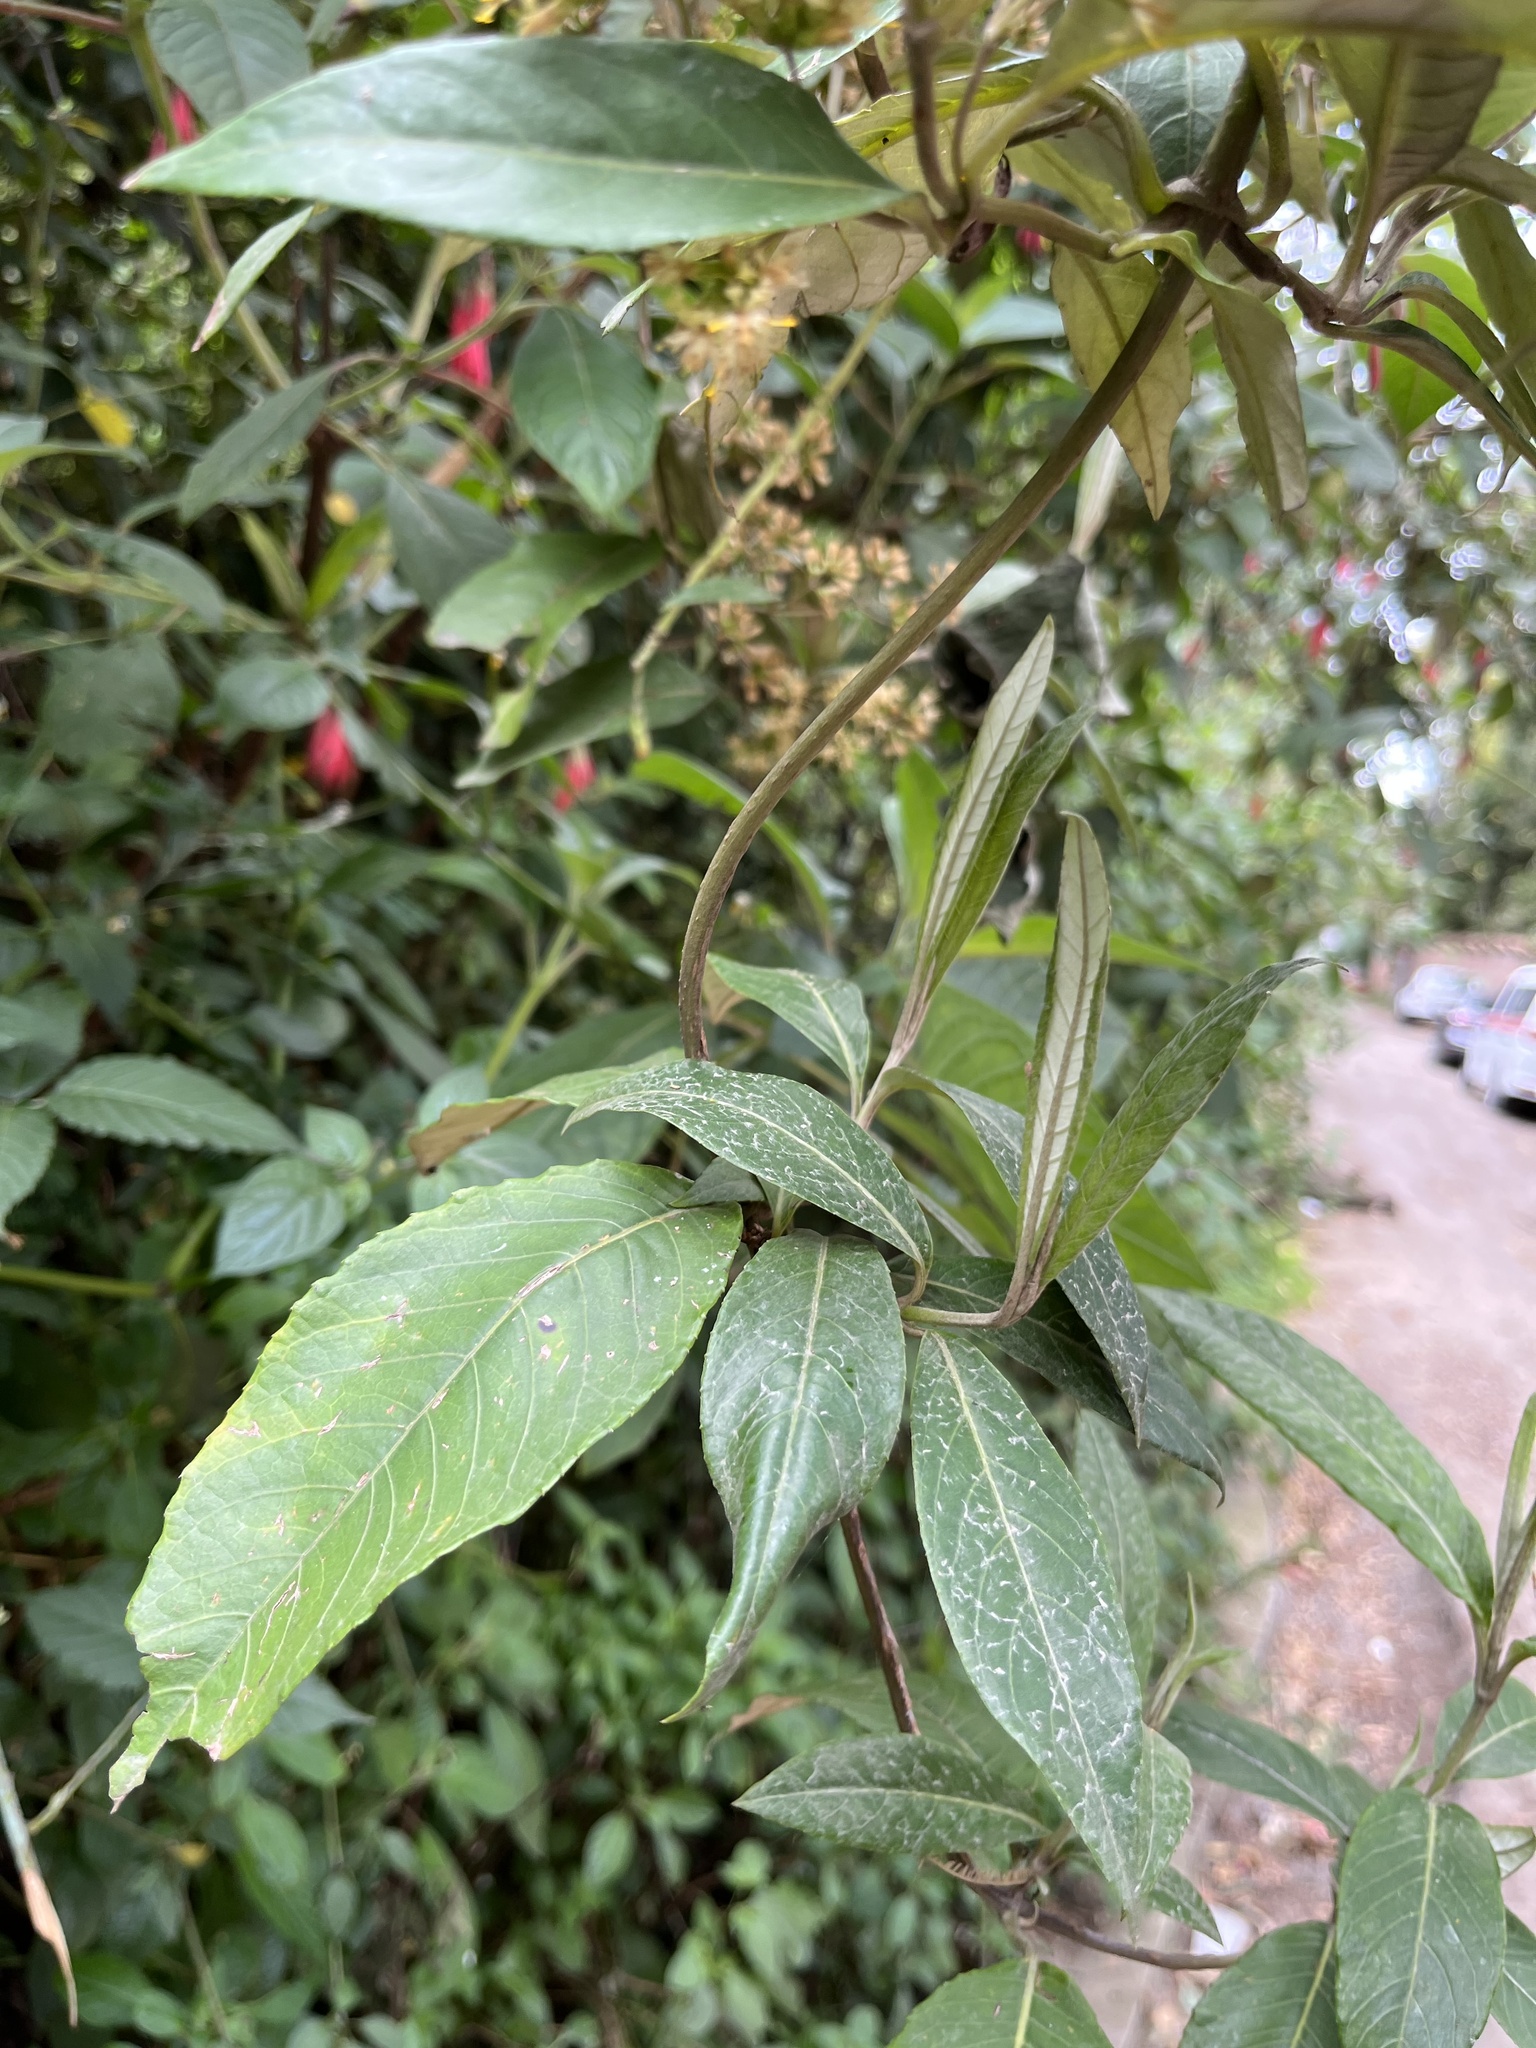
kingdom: Plantae
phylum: Tracheophyta
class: Magnoliopsida
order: Asterales
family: Asteraceae
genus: Oligactis
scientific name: Oligactis sessiliflora
